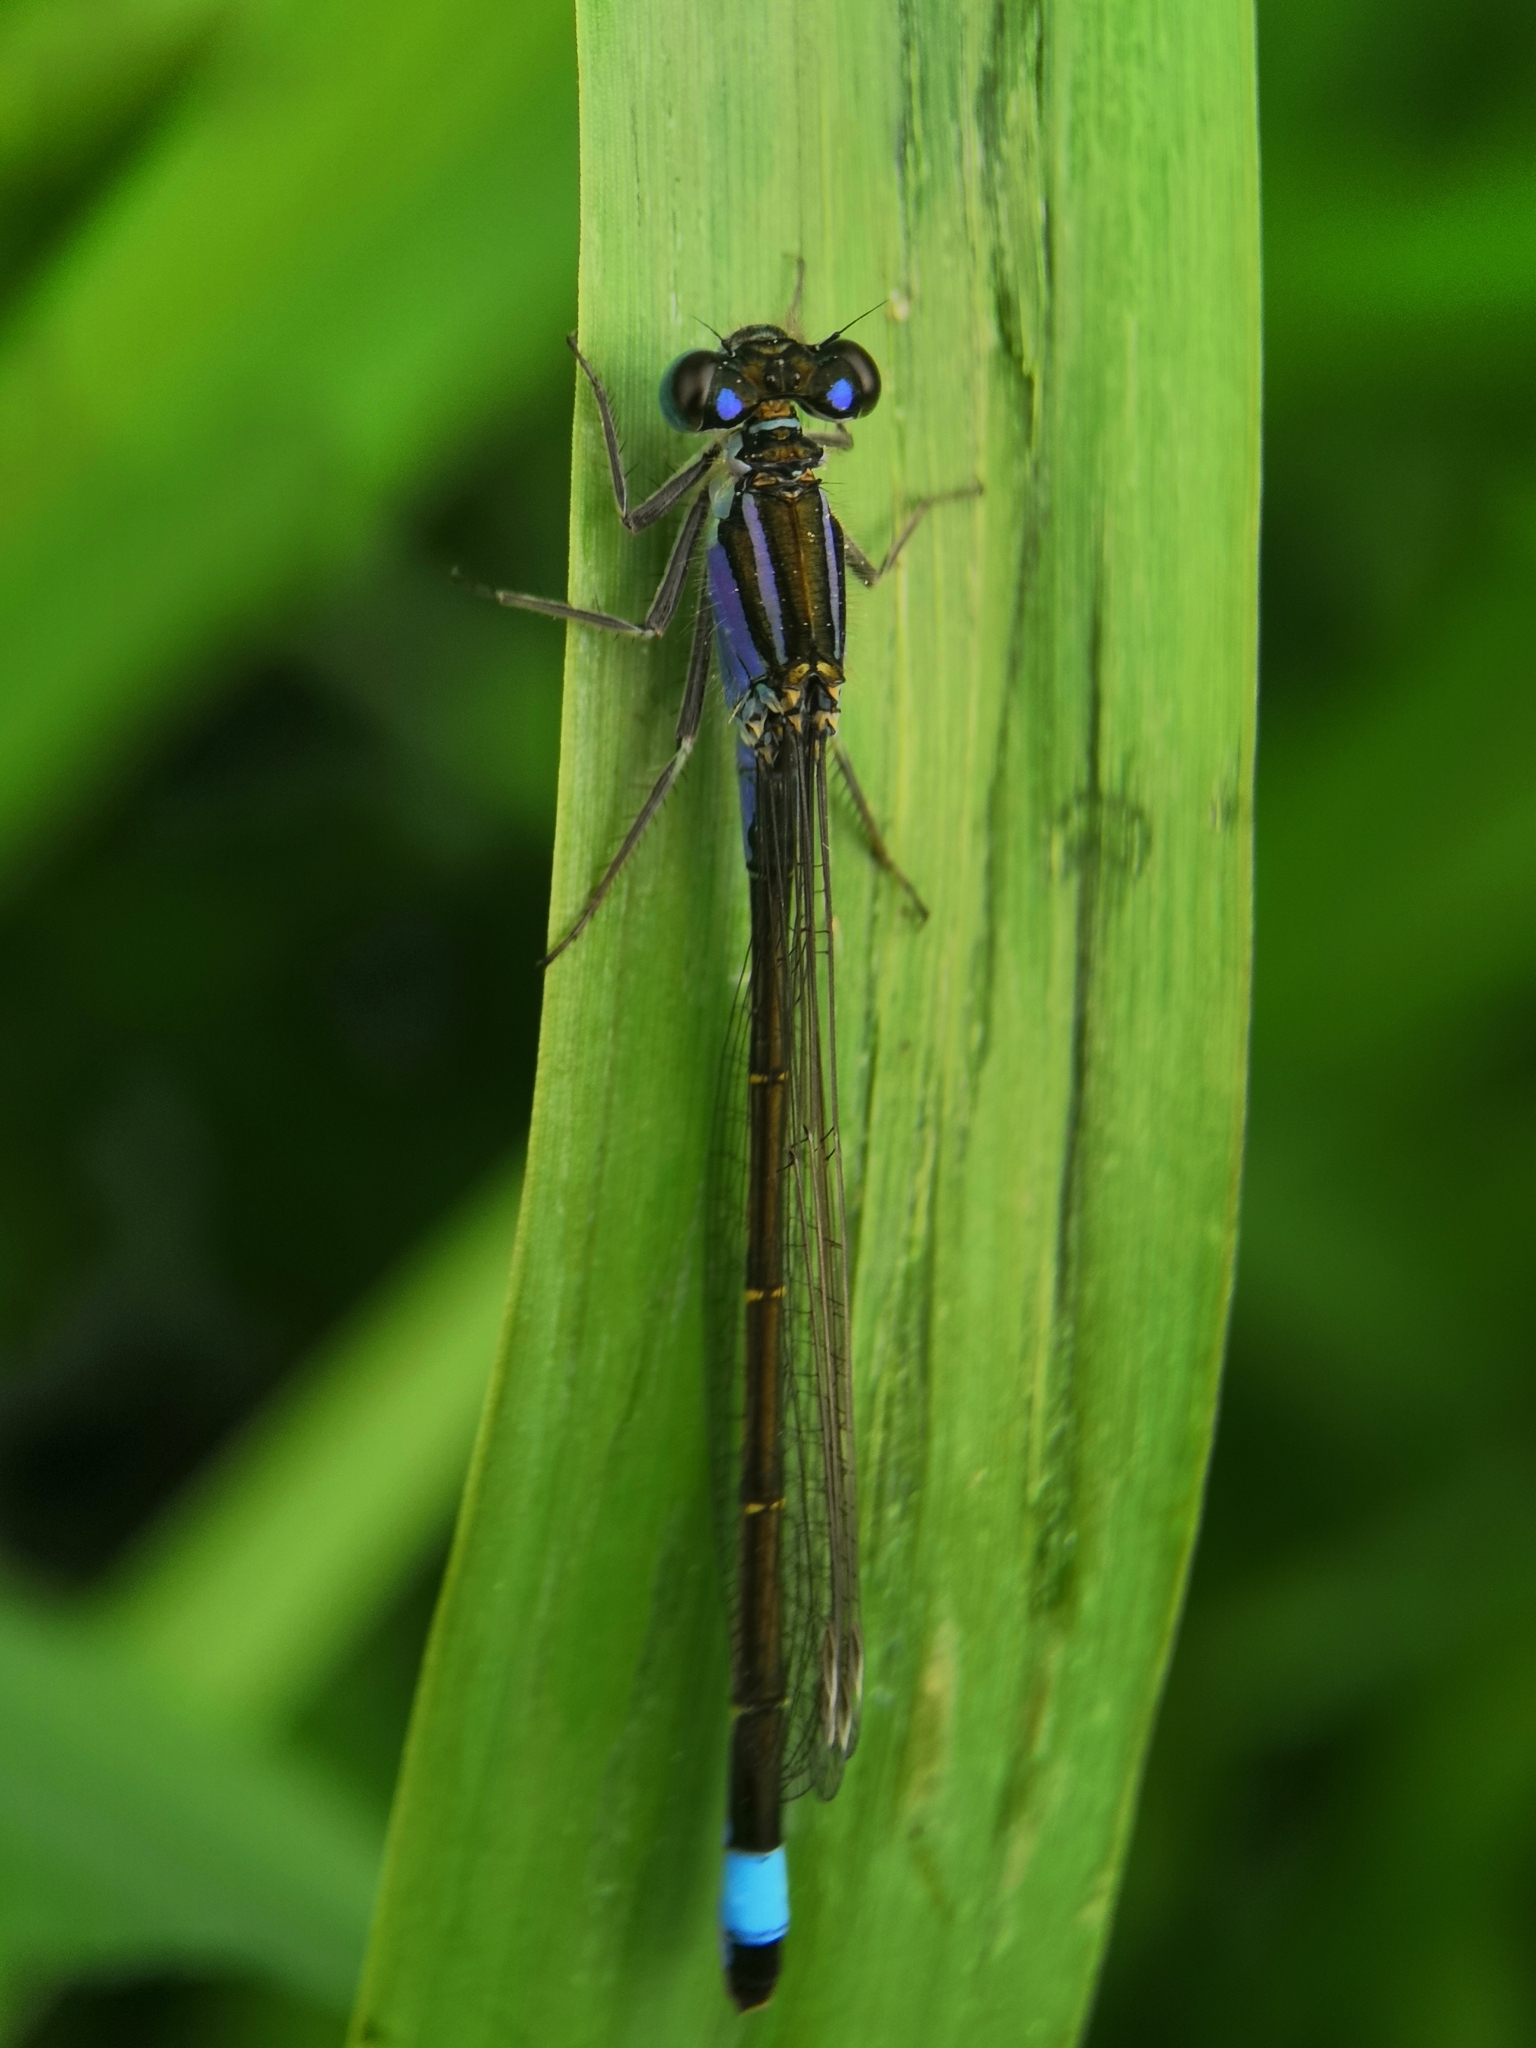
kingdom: Animalia
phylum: Arthropoda
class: Insecta
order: Odonata
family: Coenagrionidae
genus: Ischnura
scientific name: Ischnura elegans
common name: Blue-tailed damselfly
